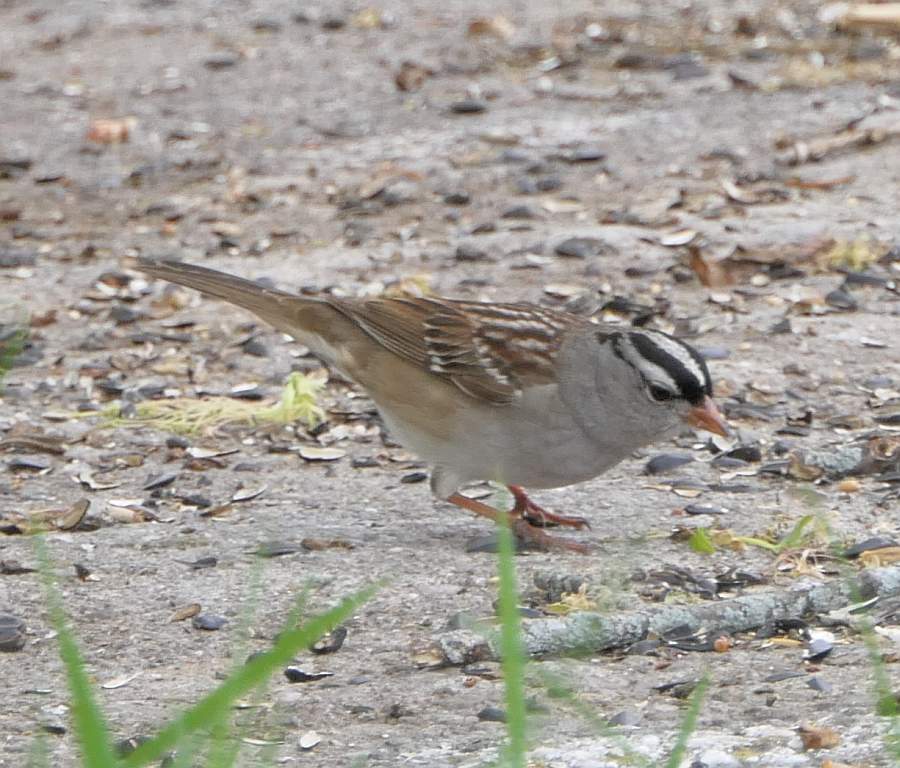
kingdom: Animalia
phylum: Chordata
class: Aves
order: Passeriformes
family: Passerellidae
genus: Zonotrichia
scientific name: Zonotrichia leucophrys
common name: White-crowned sparrow
